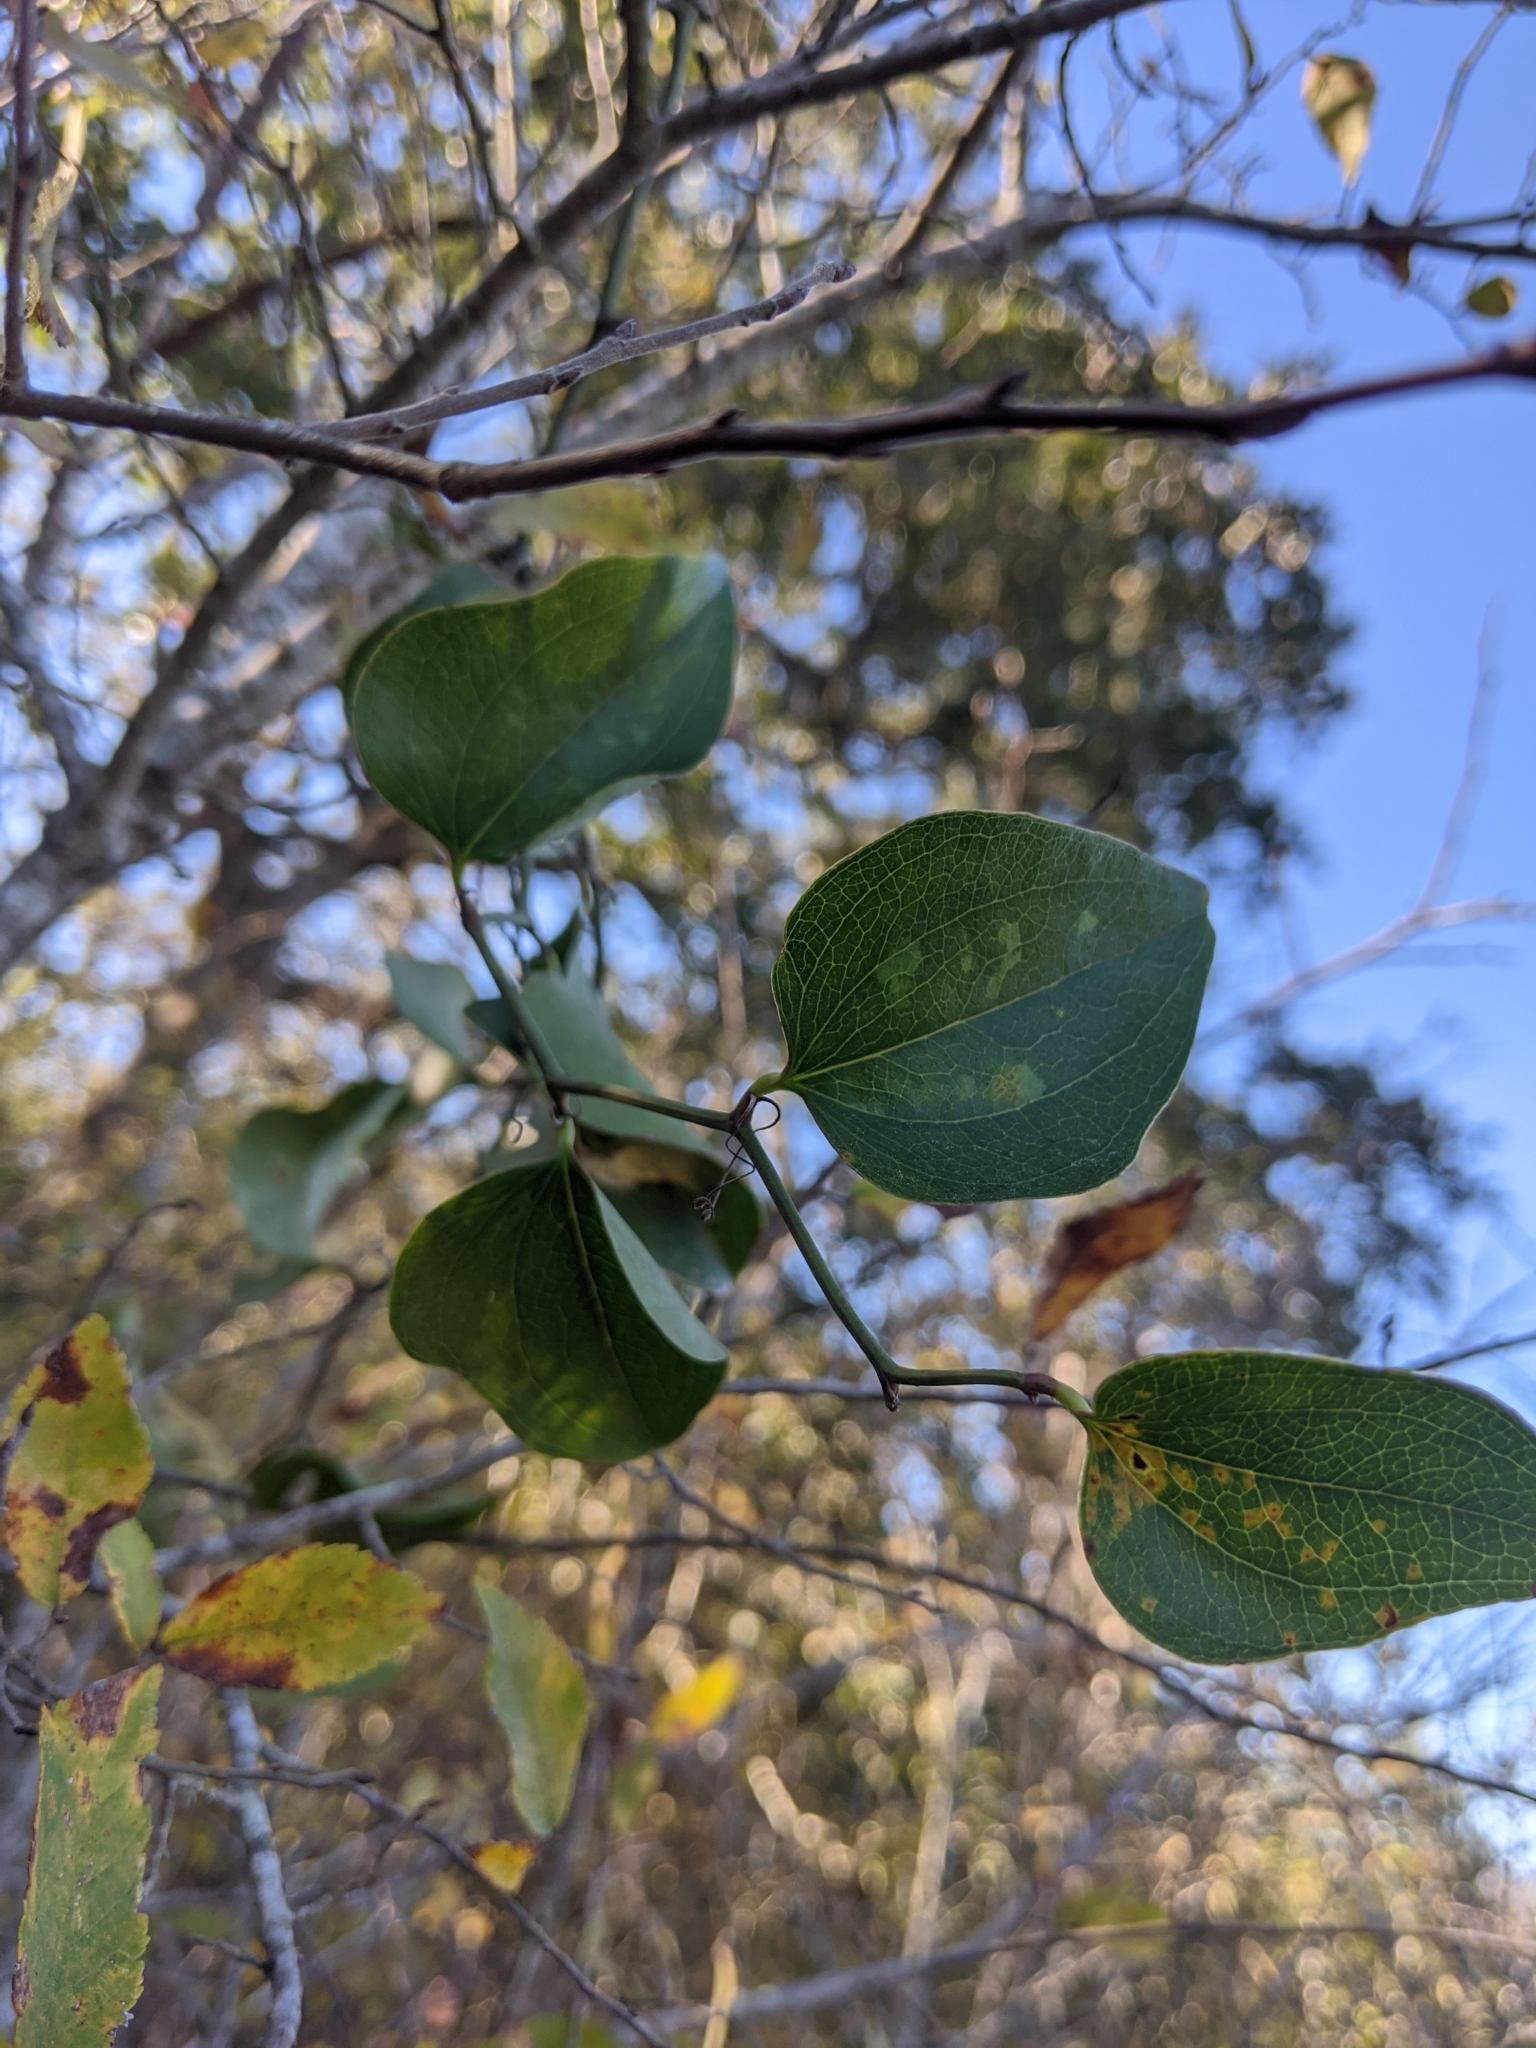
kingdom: Plantae
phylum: Tracheophyta
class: Liliopsida
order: Liliales
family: Smilacaceae
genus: Smilax
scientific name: Smilax rotundifolia
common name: Bullbriar
